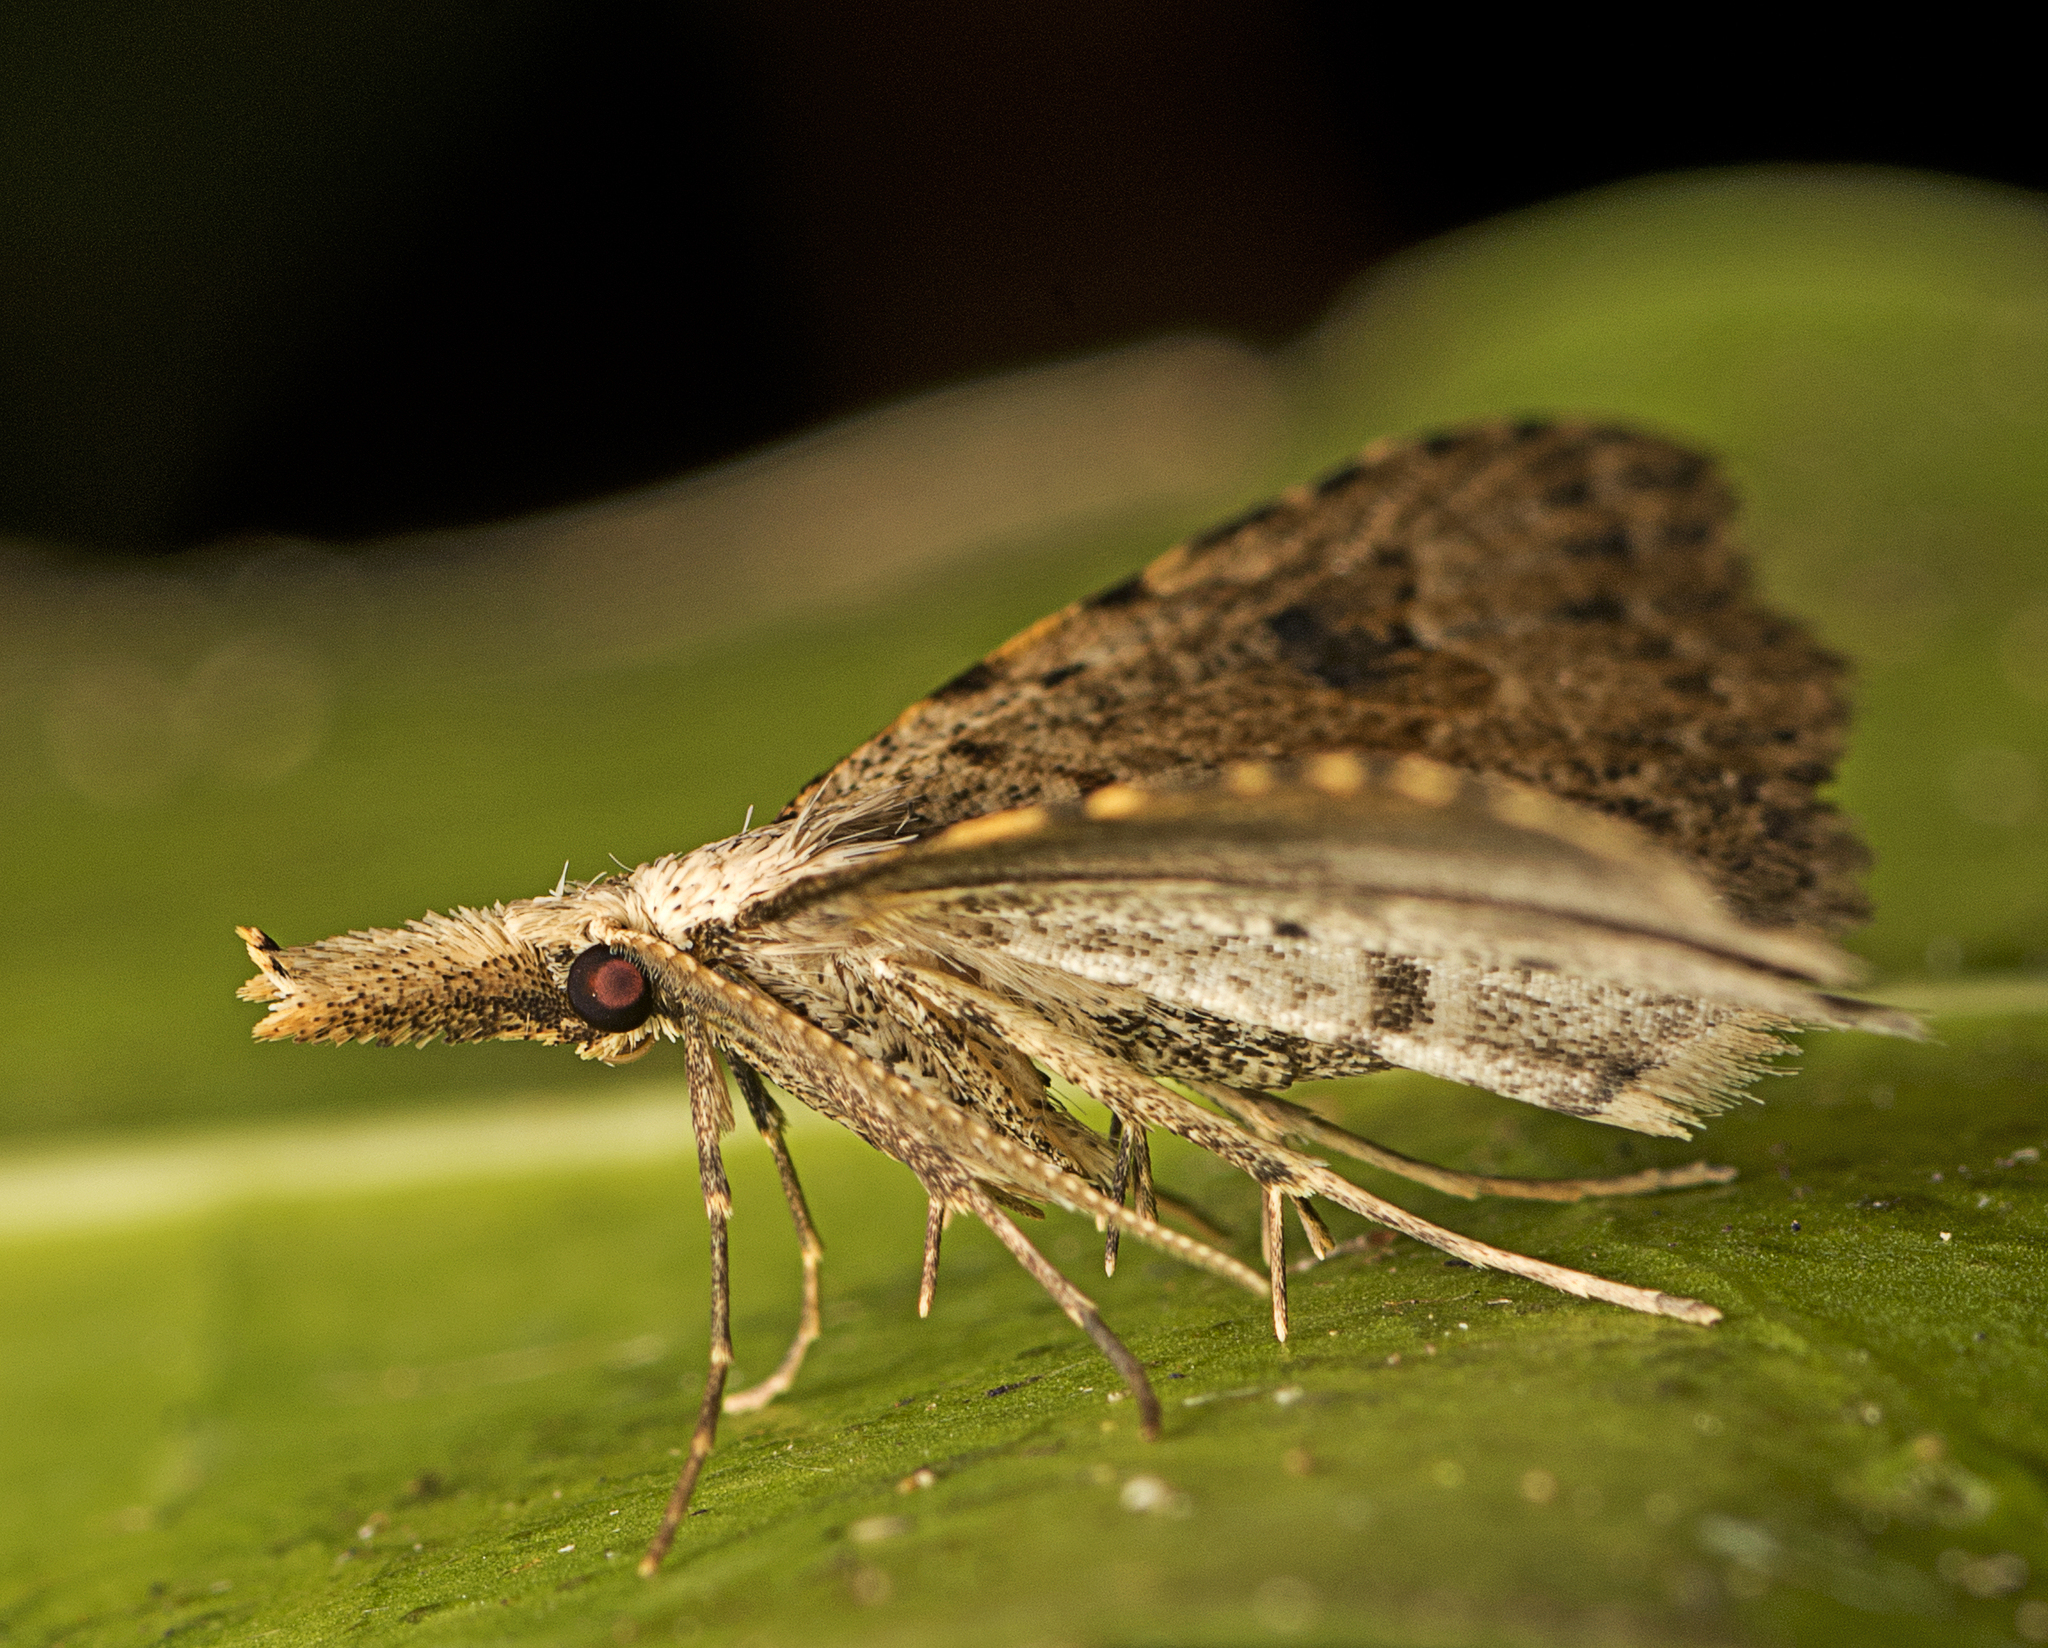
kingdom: Animalia
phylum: Arthropoda
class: Insecta
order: Lepidoptera
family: Erebidae
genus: Trigonistis
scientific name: Trigonistis asthenopa
